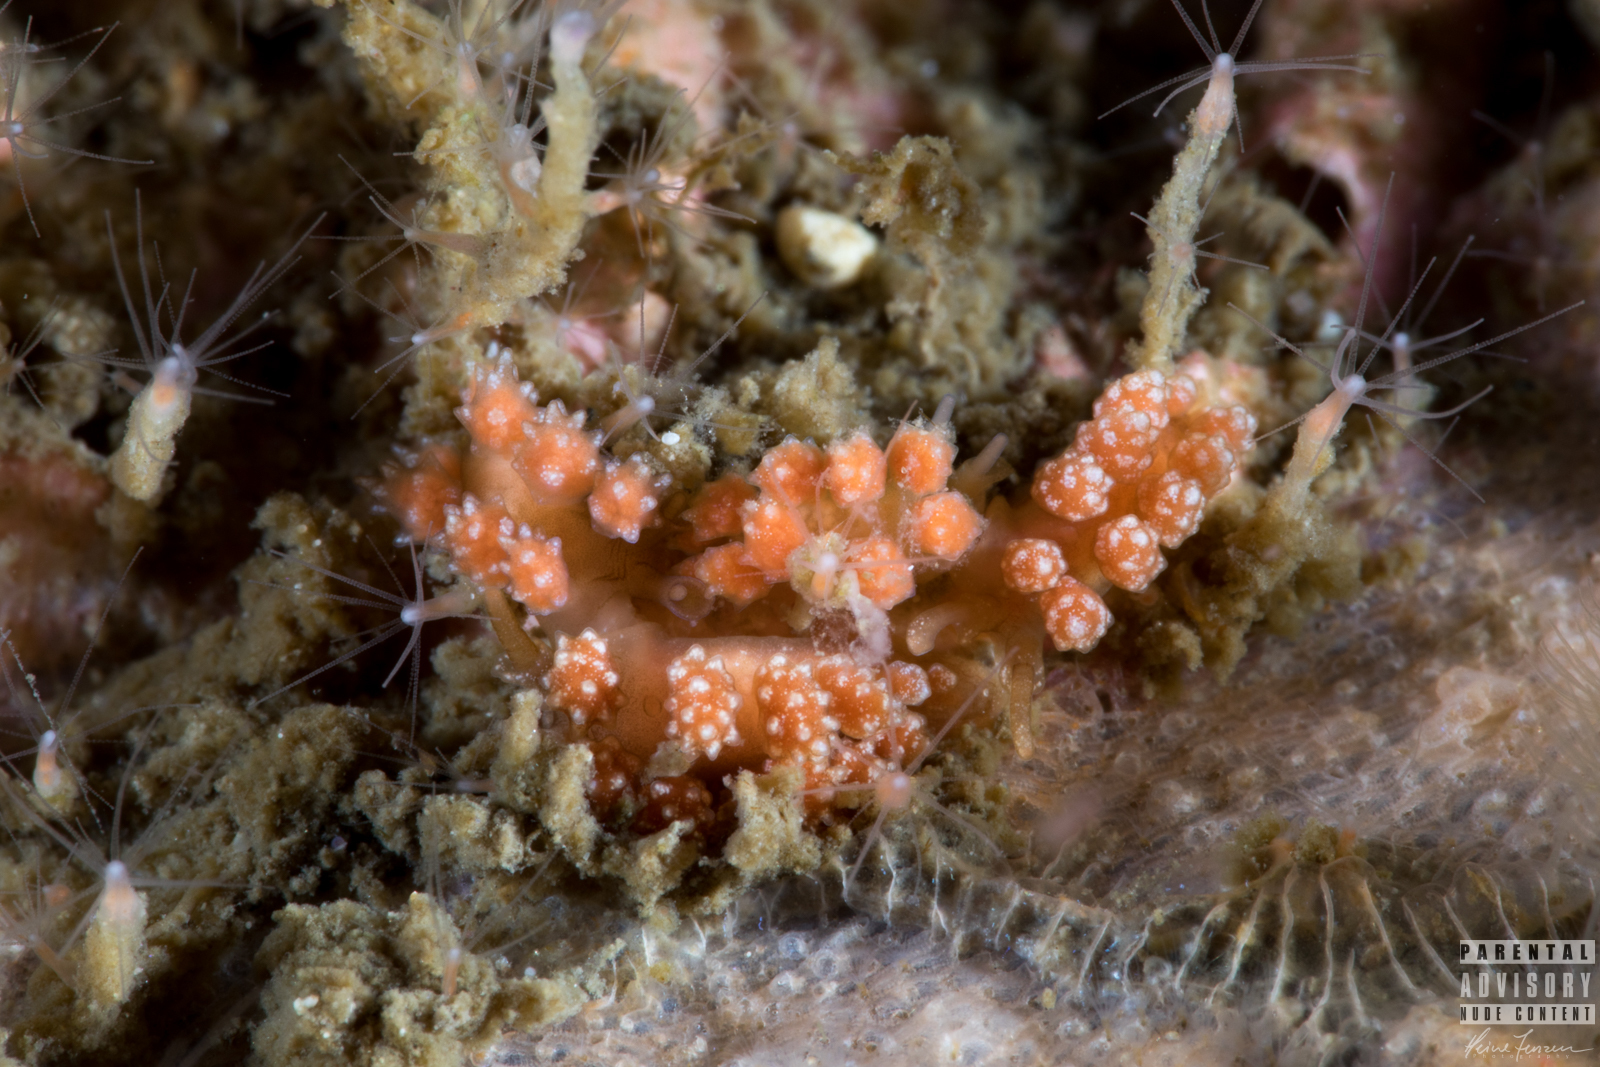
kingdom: Animalia
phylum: Mollusca
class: Gastropoda
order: Nudibranchia
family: Dotidae
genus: Doto
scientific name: Doto fragilis
